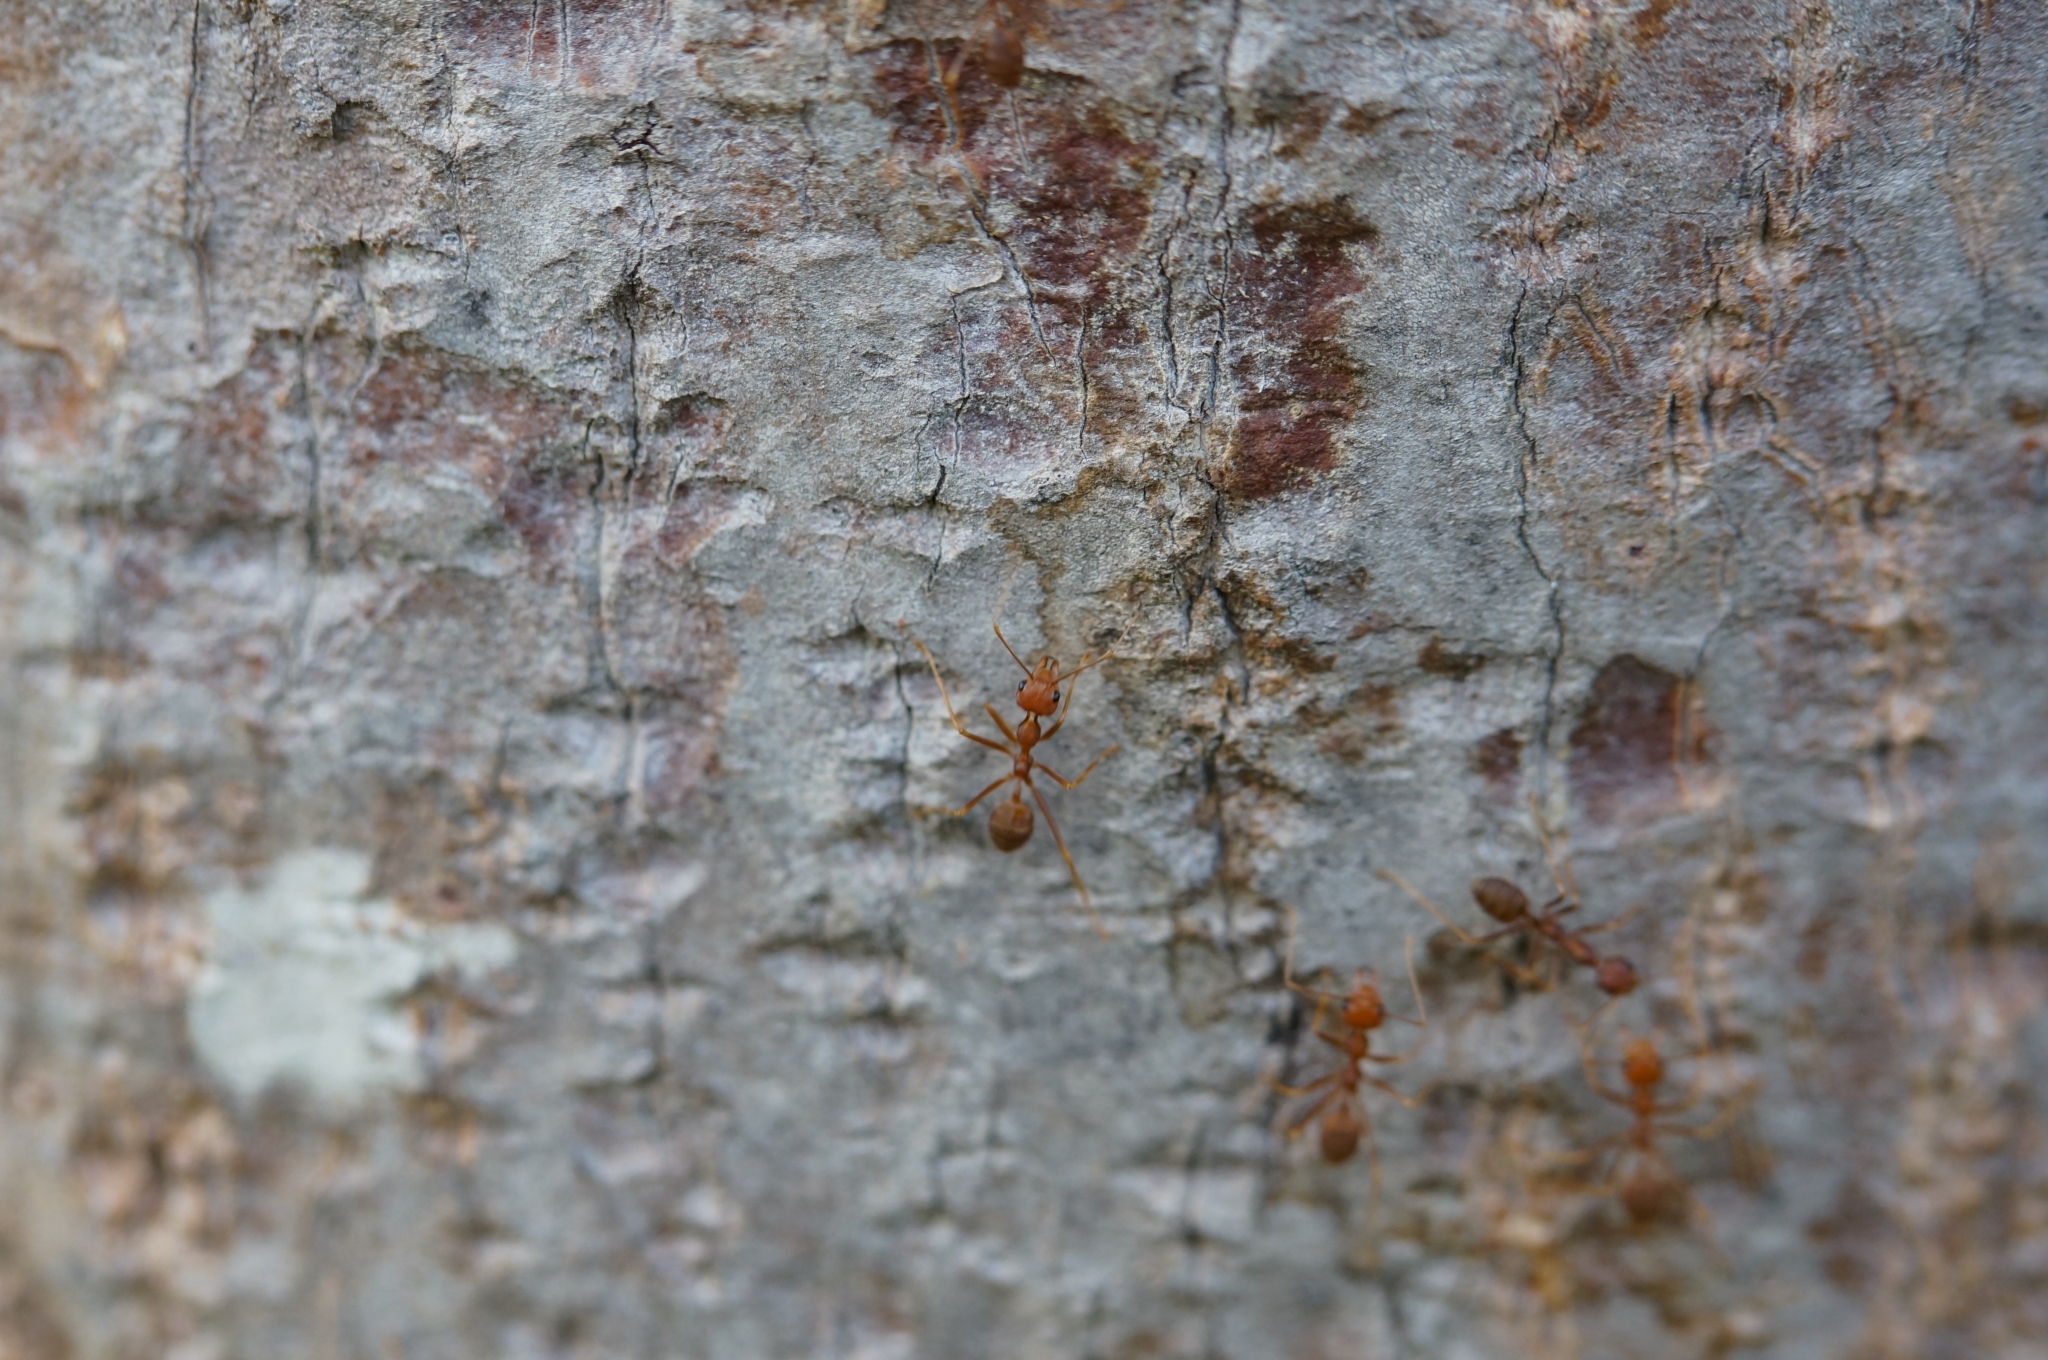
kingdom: Animalia
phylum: Arthropoda
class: Insecta
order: Hymenoptera
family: Formicidae
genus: Oecophylla
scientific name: Oecophylla smaragdina
